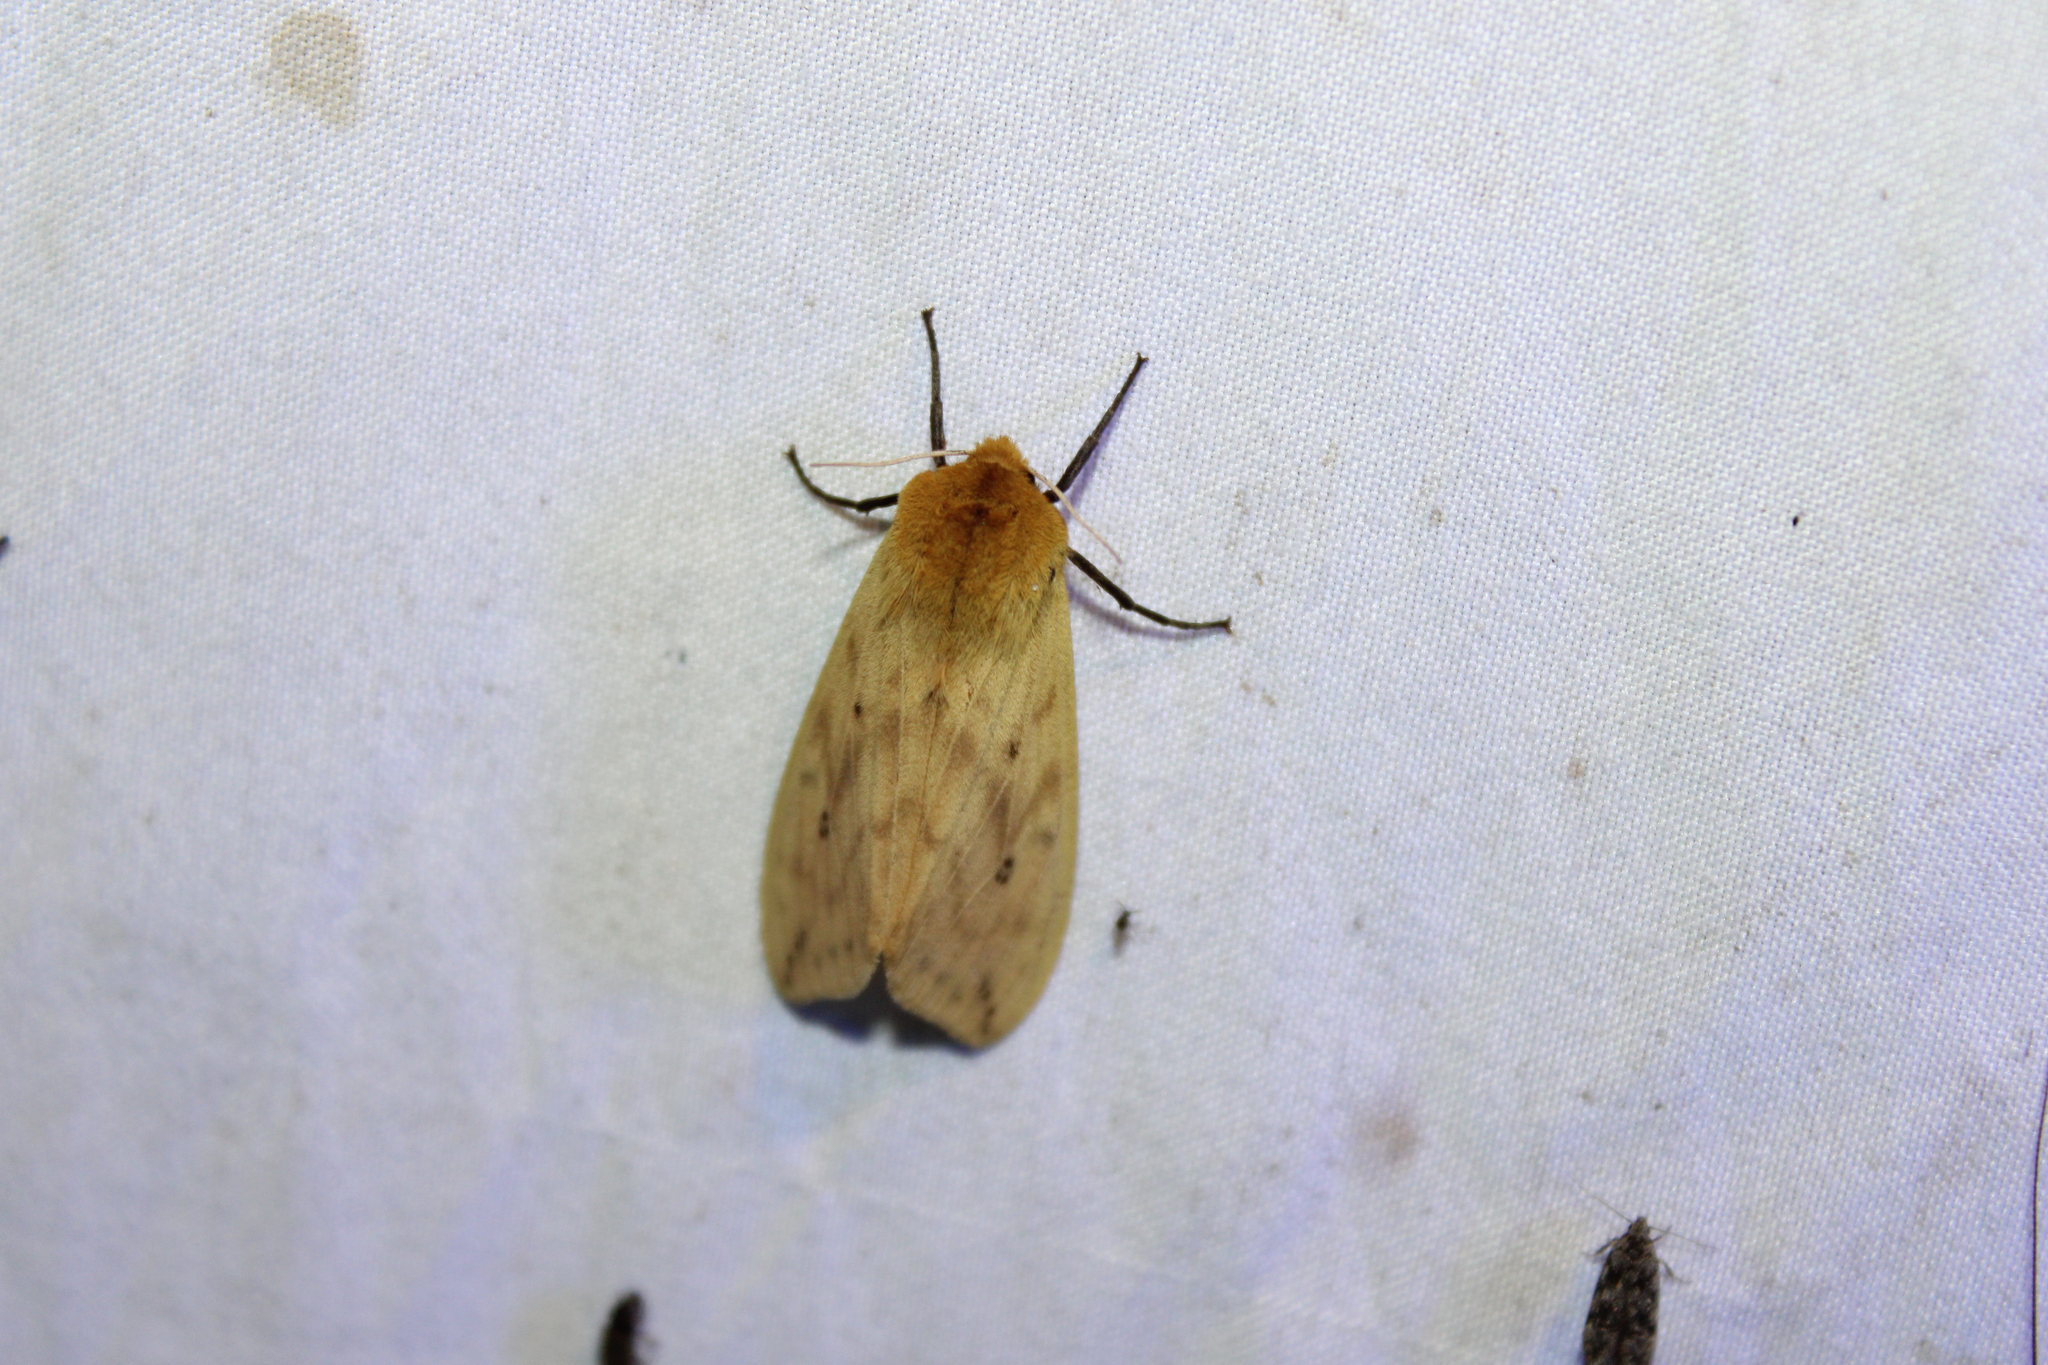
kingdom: Animalia
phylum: Arthropoda
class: Insecta
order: Lepidoptera
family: Erebidae
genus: Pyrrharctia
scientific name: Pyrrharctia isabella
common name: Isabella tiger moth
